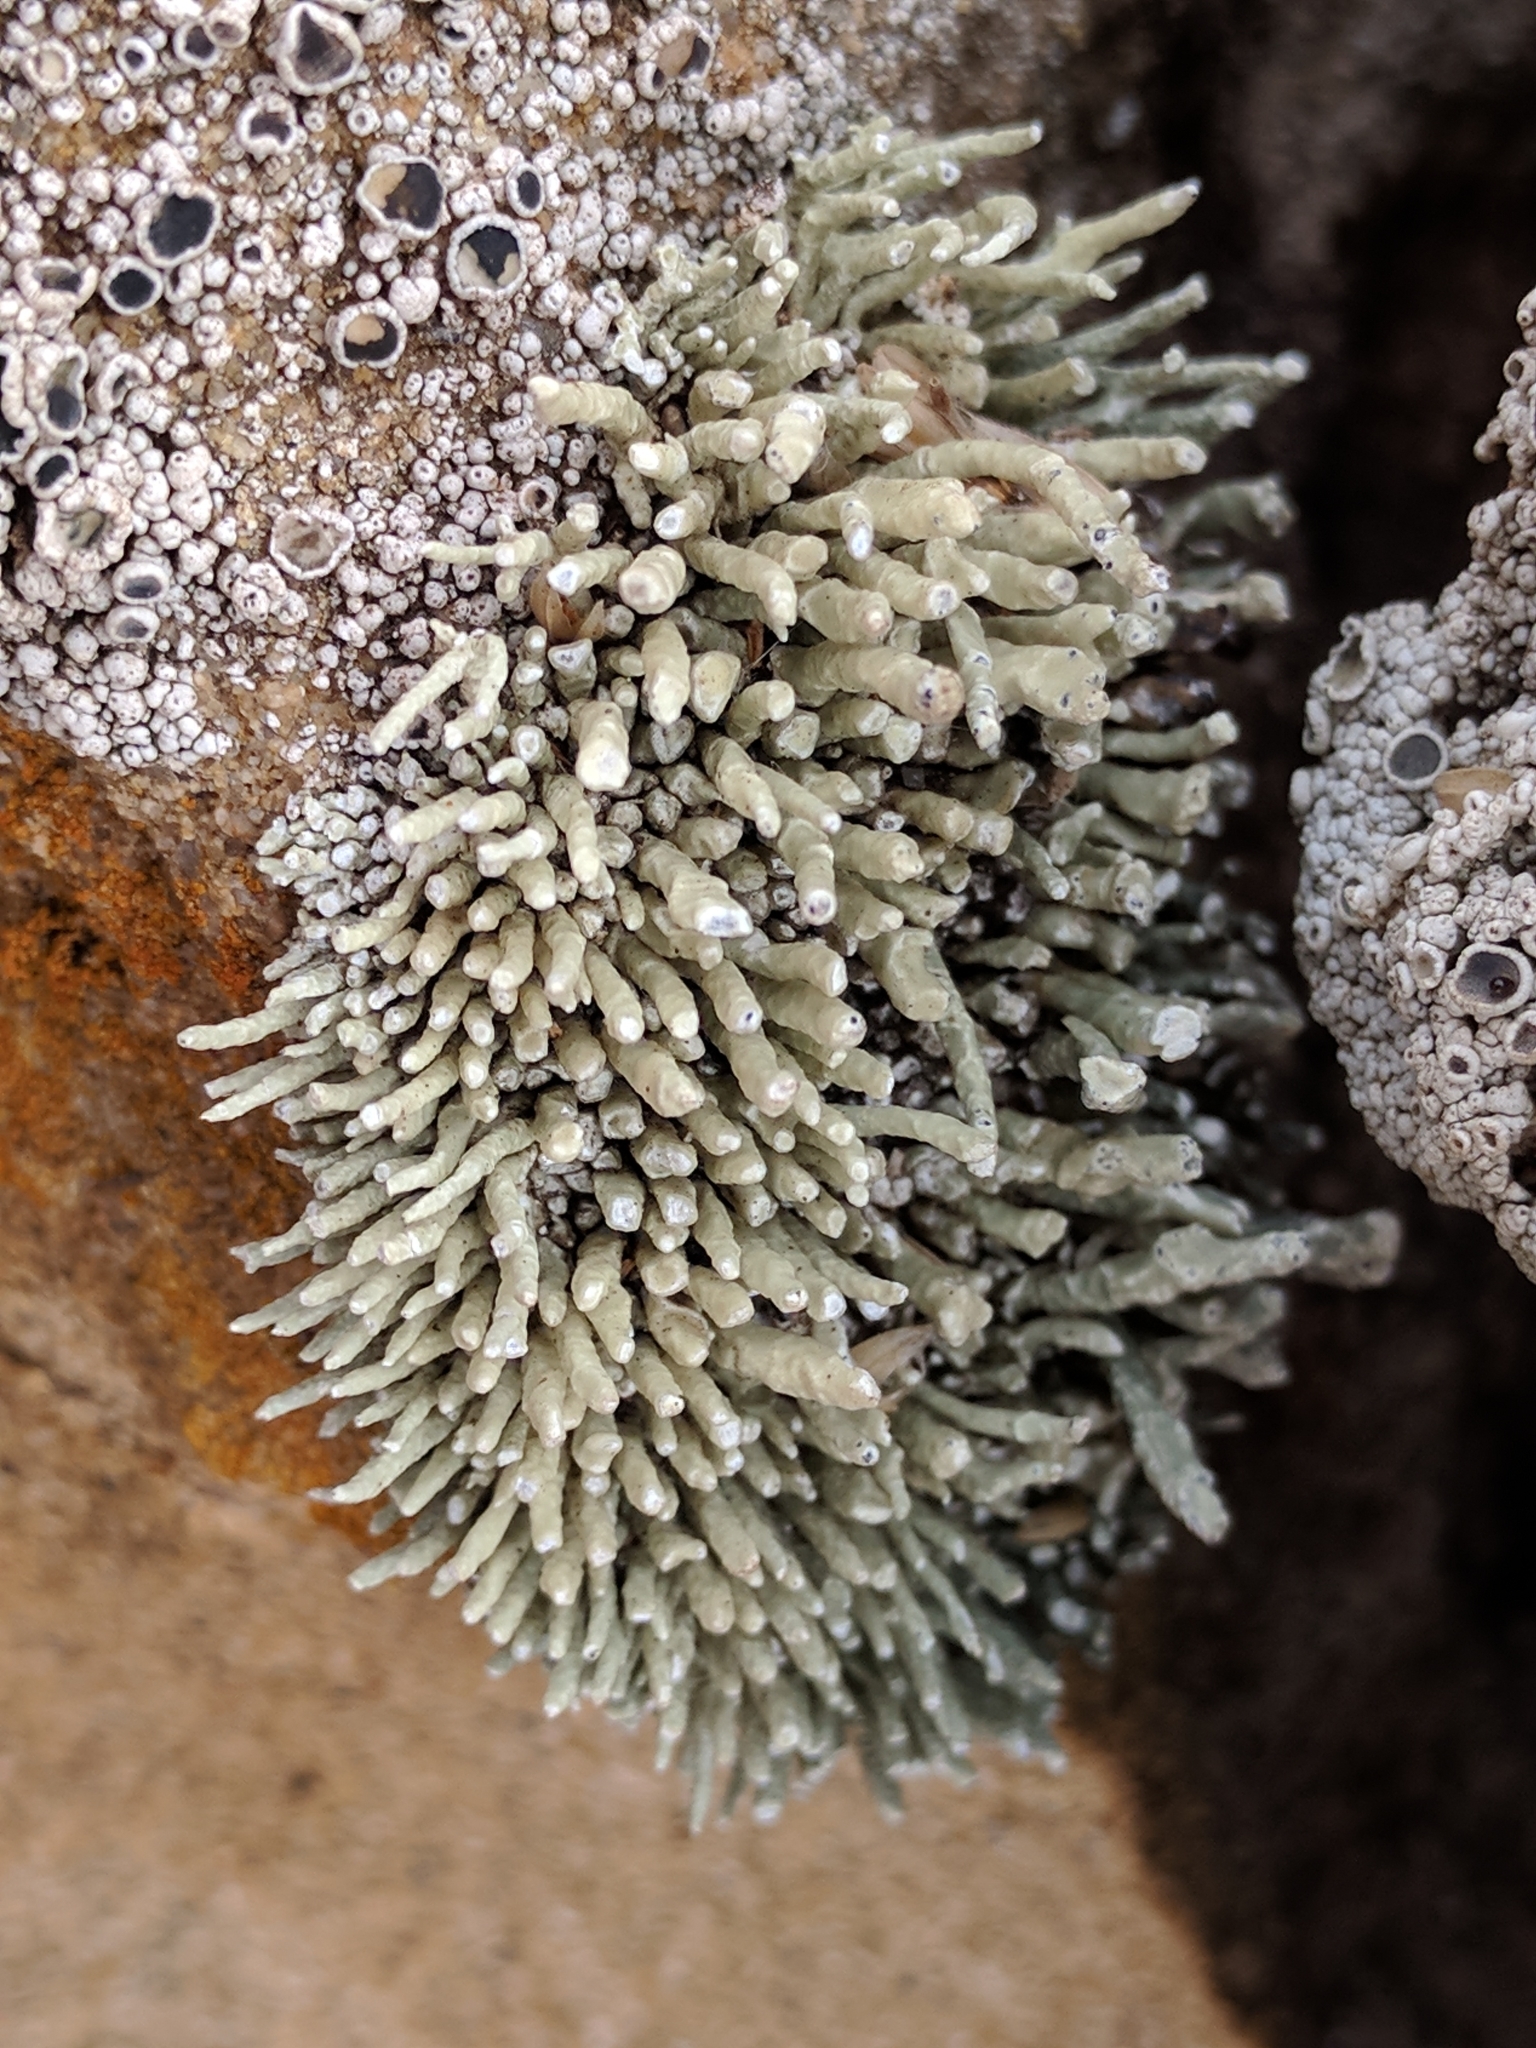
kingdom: Fungi
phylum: Ascomycota
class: Lecanoromycetes
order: Lecanorales
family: Ramalinaceae
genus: Niebla
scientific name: Niebla combeoides
